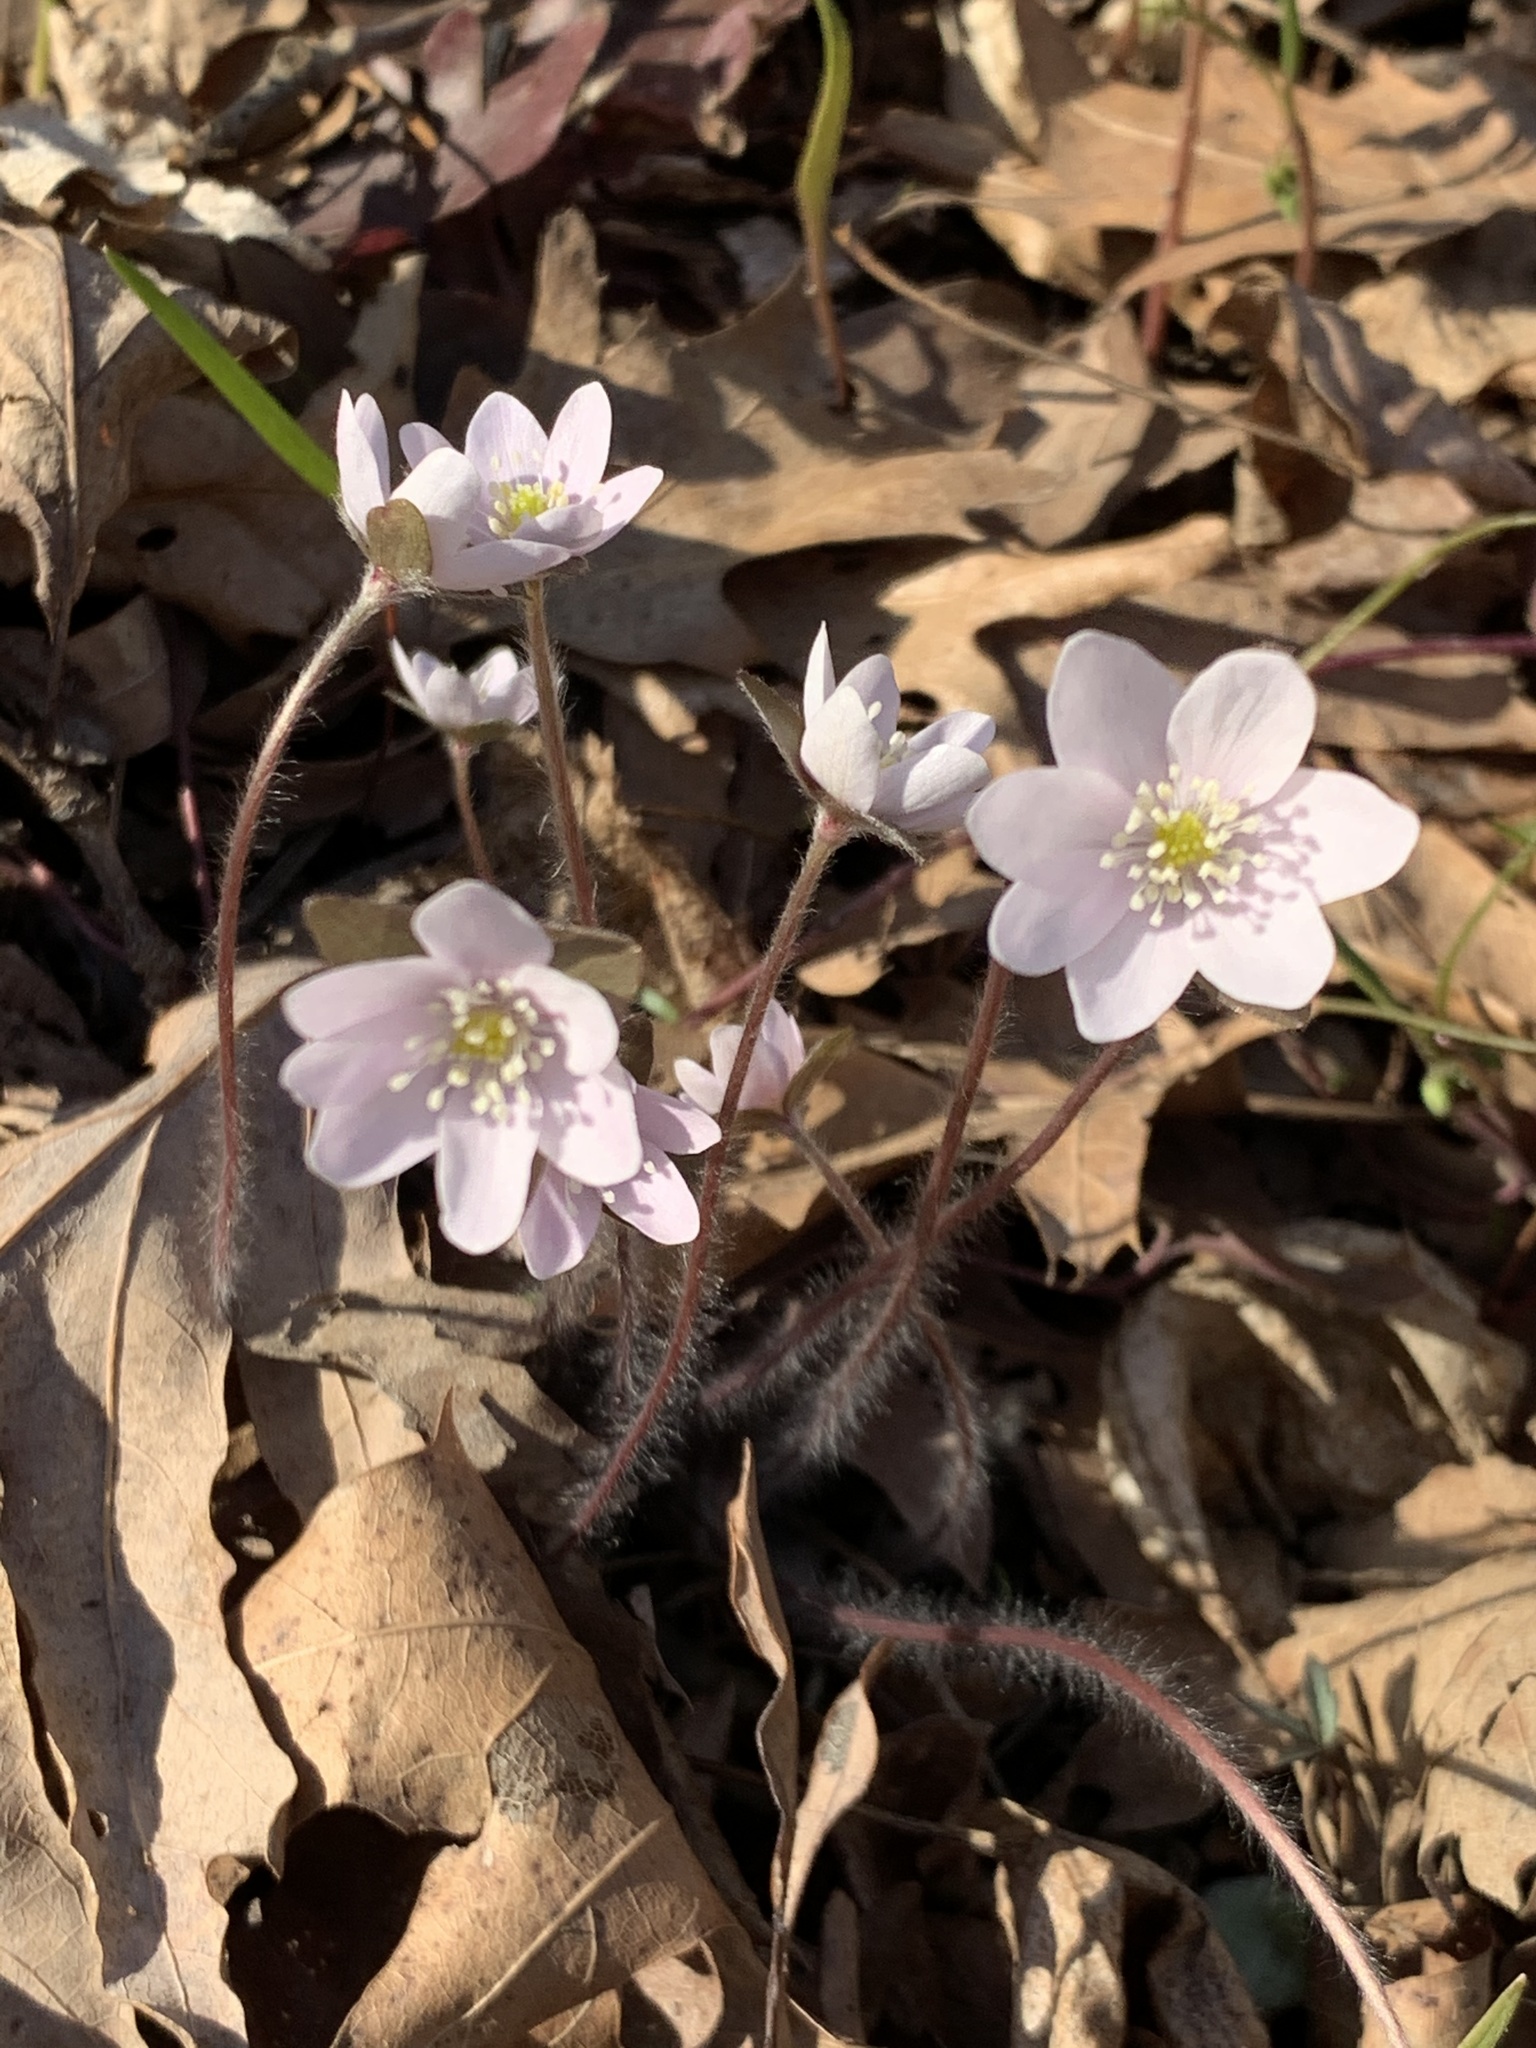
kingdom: Plantae
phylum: Tracheophyta
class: Magnoliopsida
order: Ranunculales
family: Ranunculaceae
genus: Hepatica
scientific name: Hepatica acutiloba
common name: Sharp-lobed hepatica
